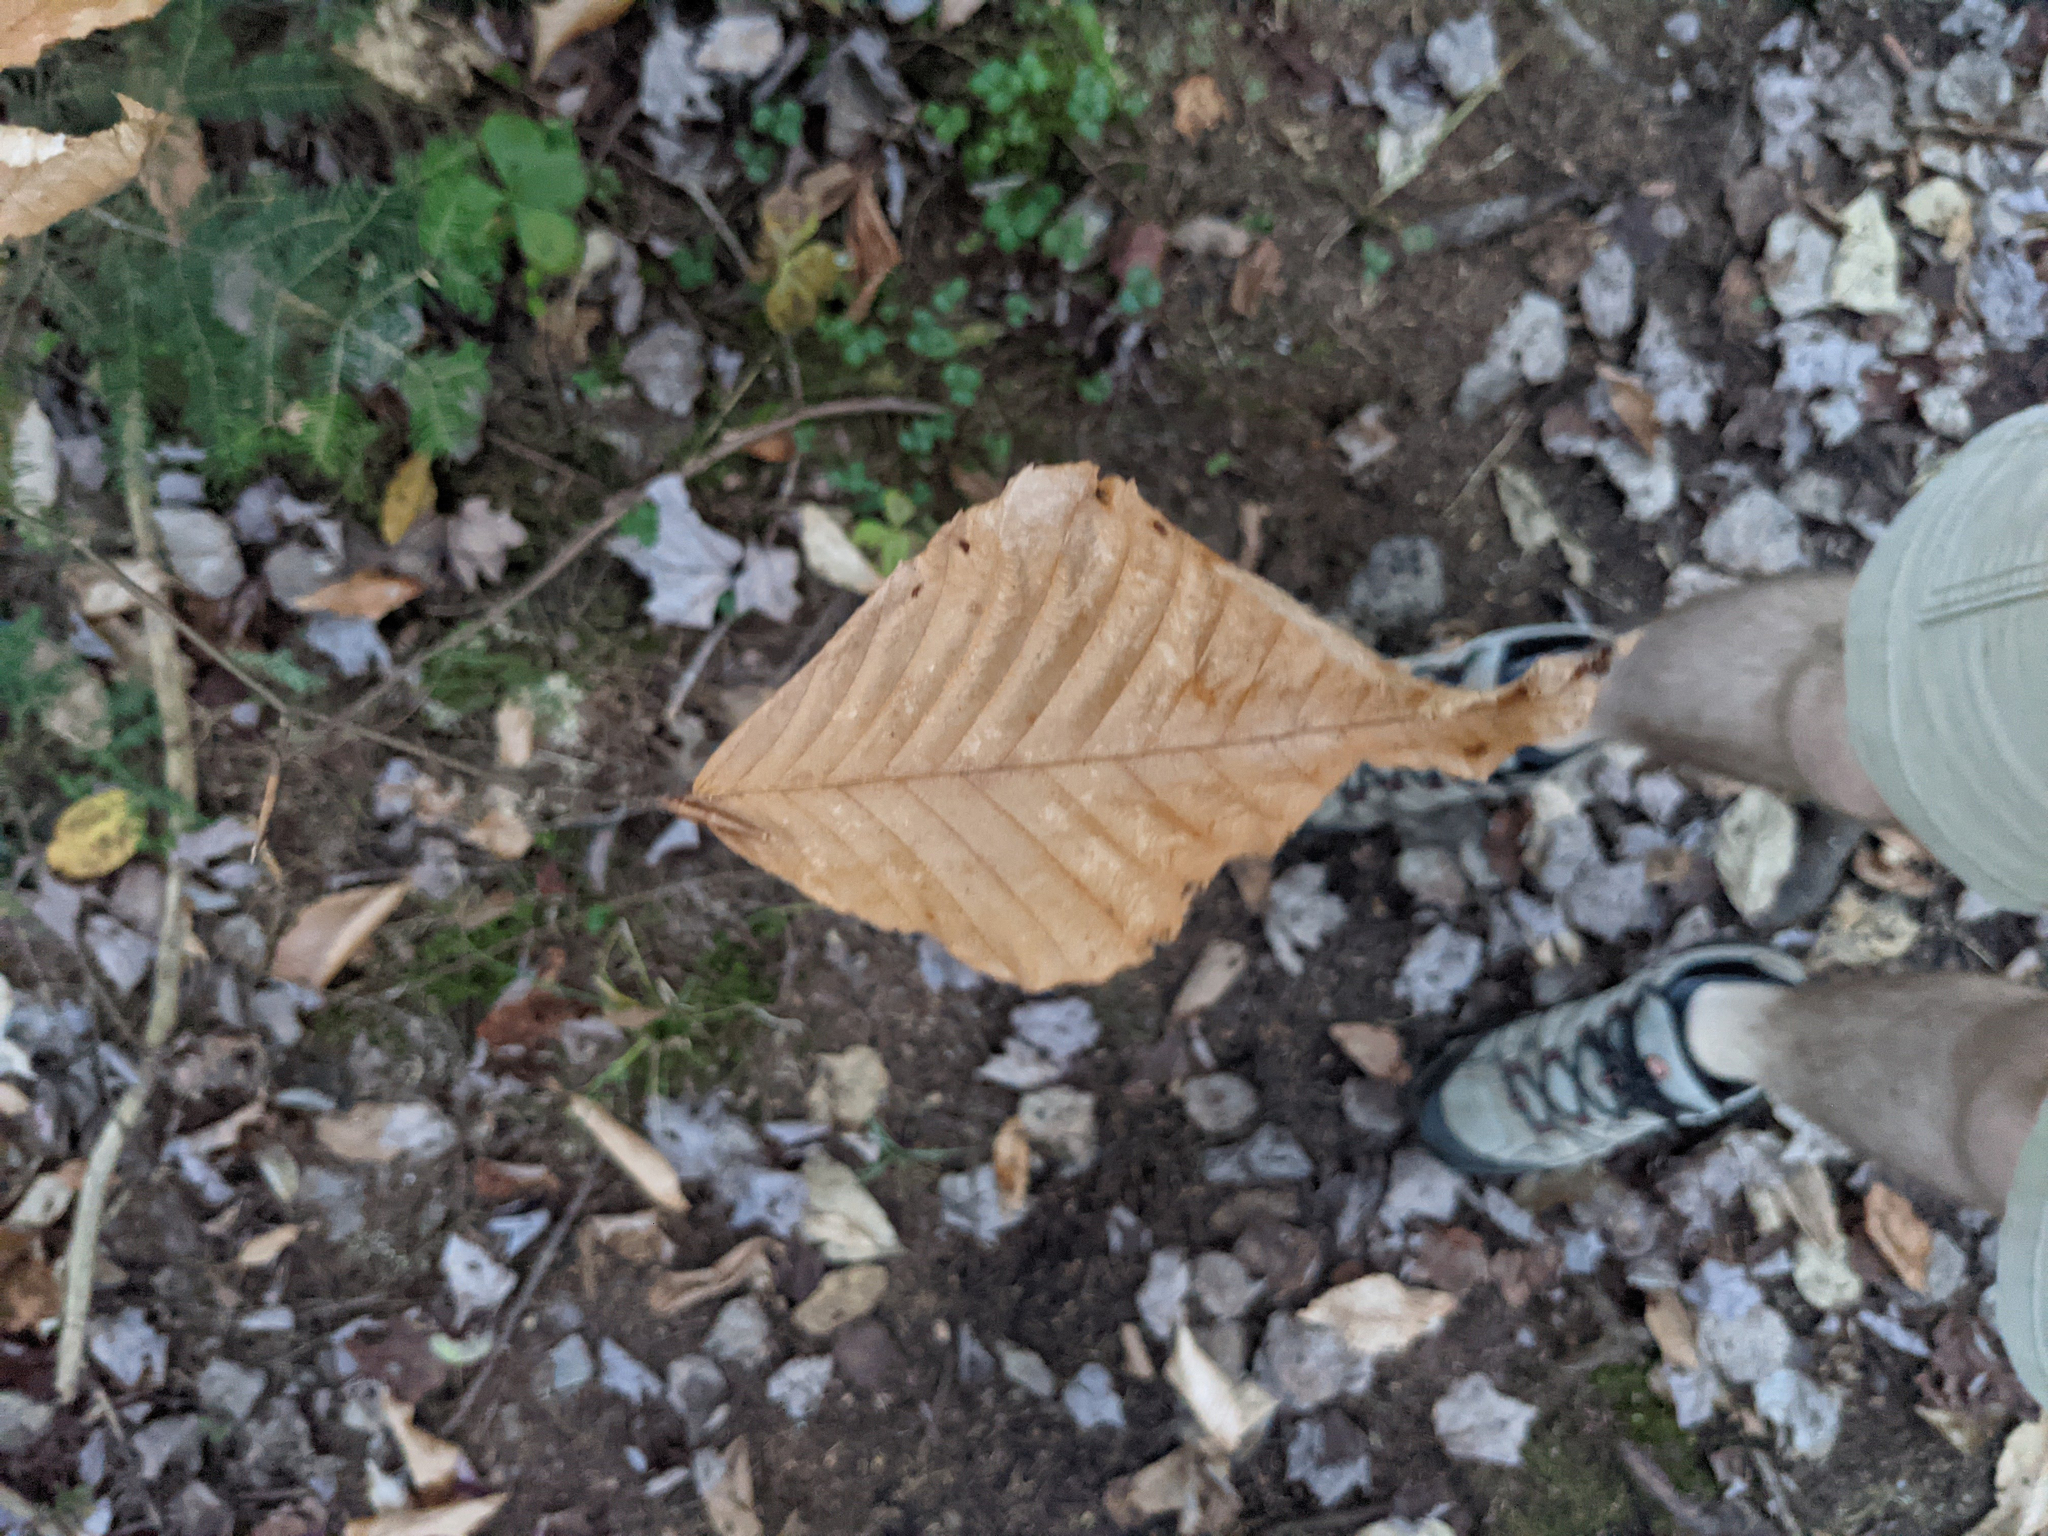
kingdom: Plantae
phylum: Tracheophyta
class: Magnoliopsida
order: Fagales
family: Fagaceae
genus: Fagus
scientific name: Fagus grandifolia
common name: American beech
